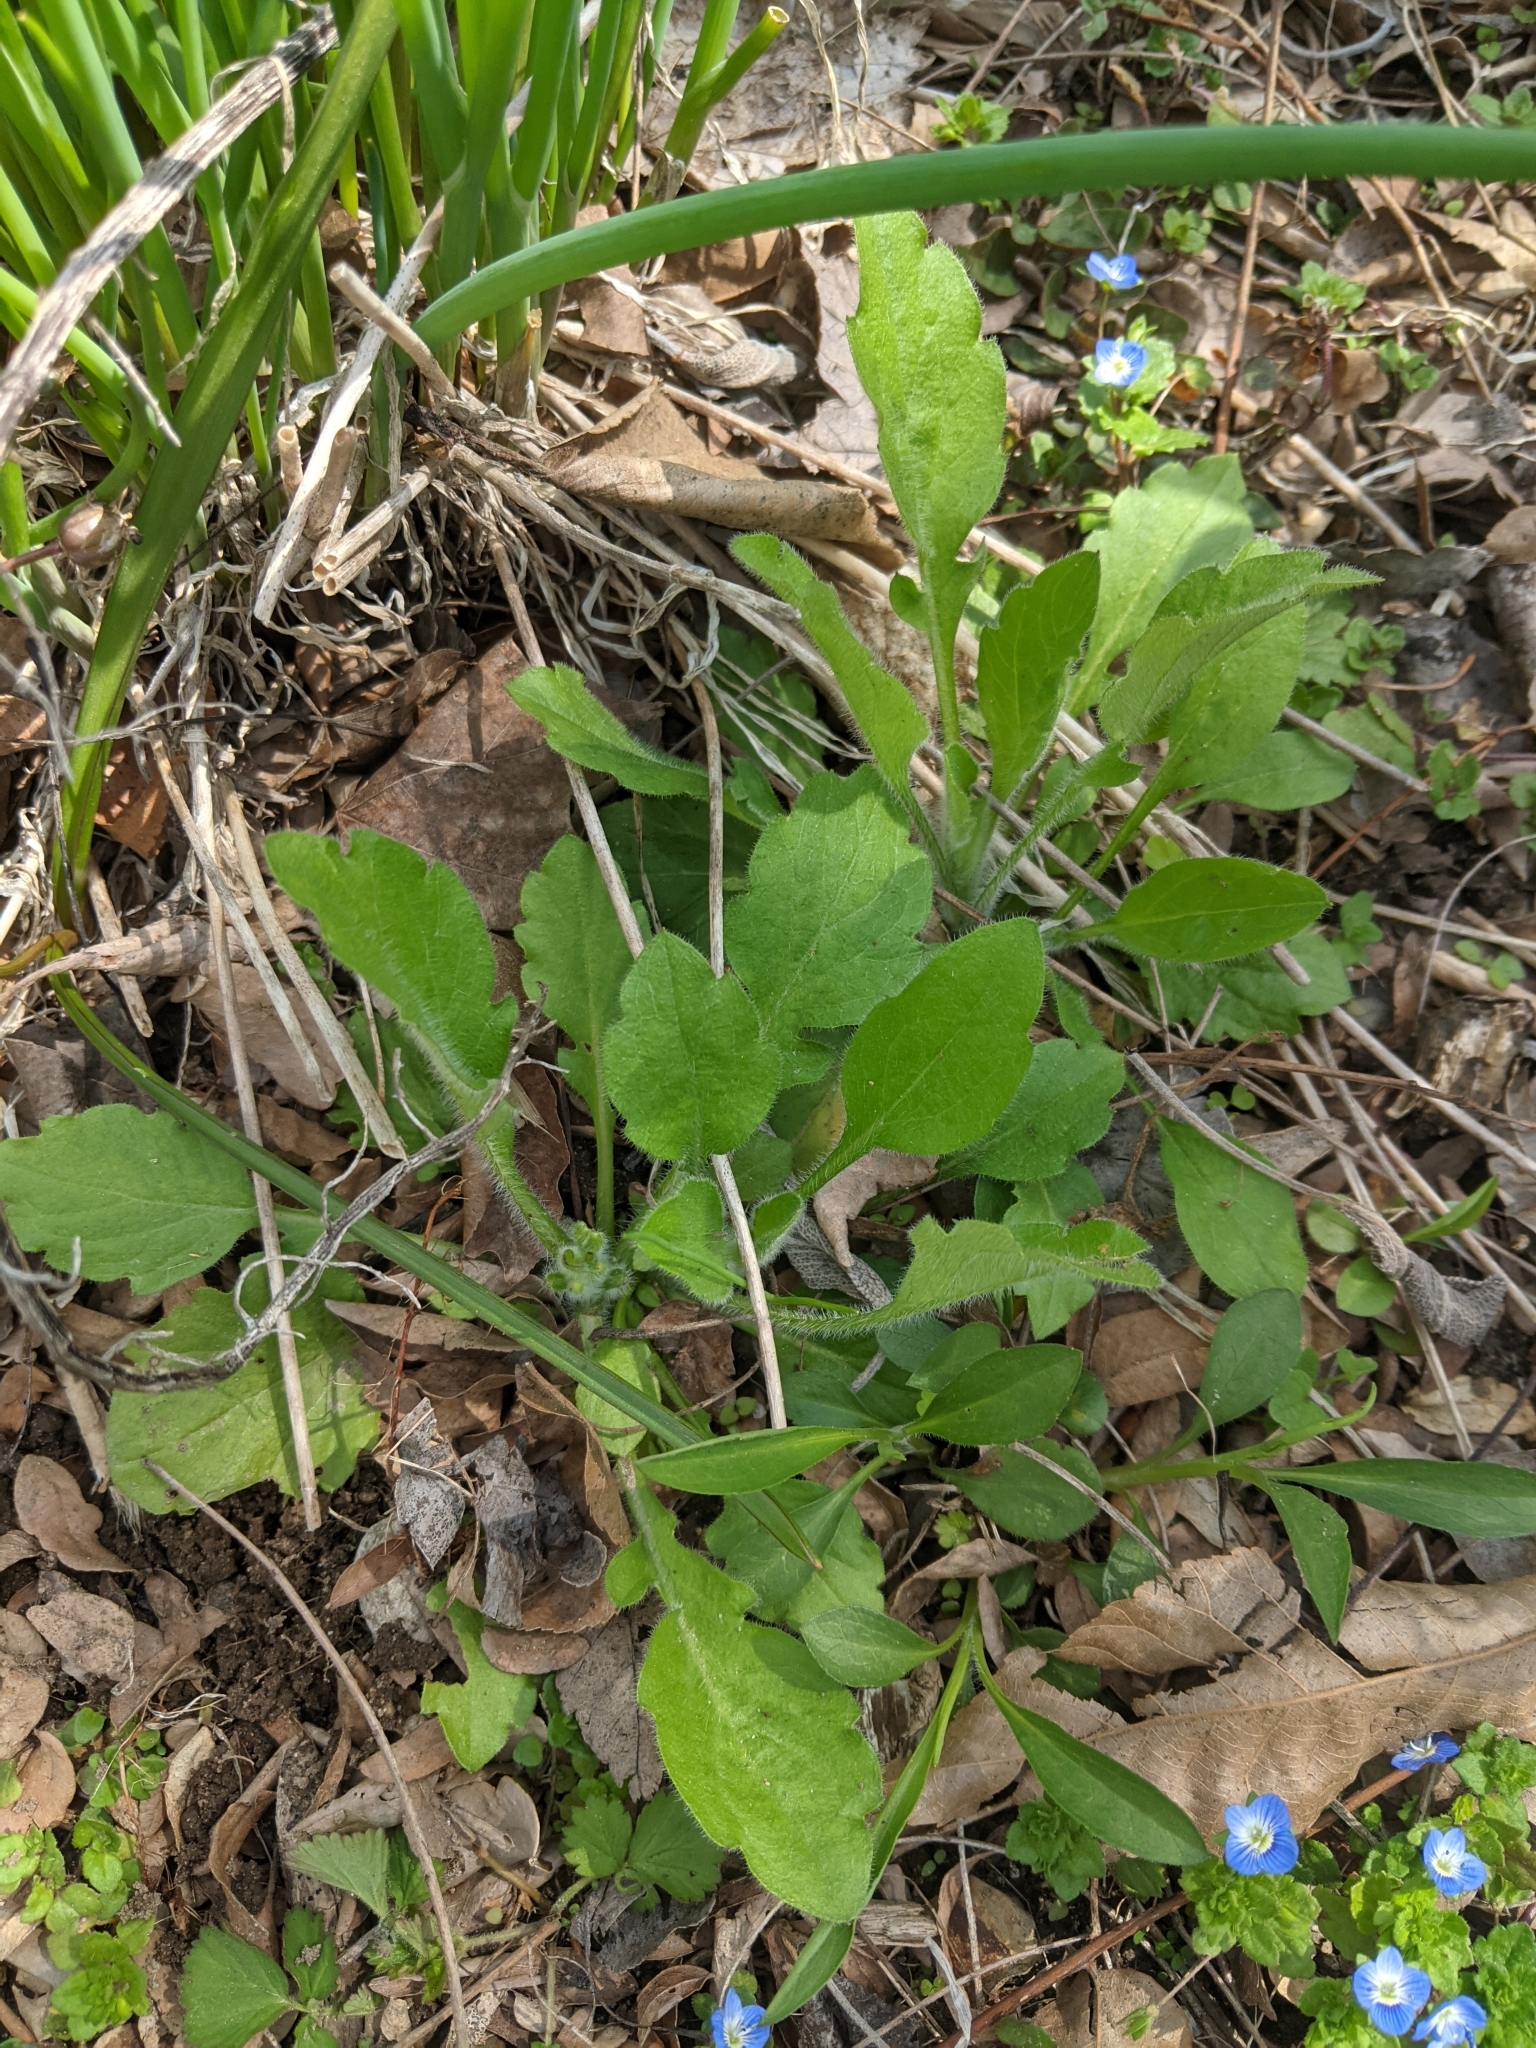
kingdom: Plantae
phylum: Tracheophyta
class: Magnoliopsida
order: Asterales
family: Asteraceae
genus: Erigeron
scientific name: Erigeron canadensis
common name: Canadian fleabane
